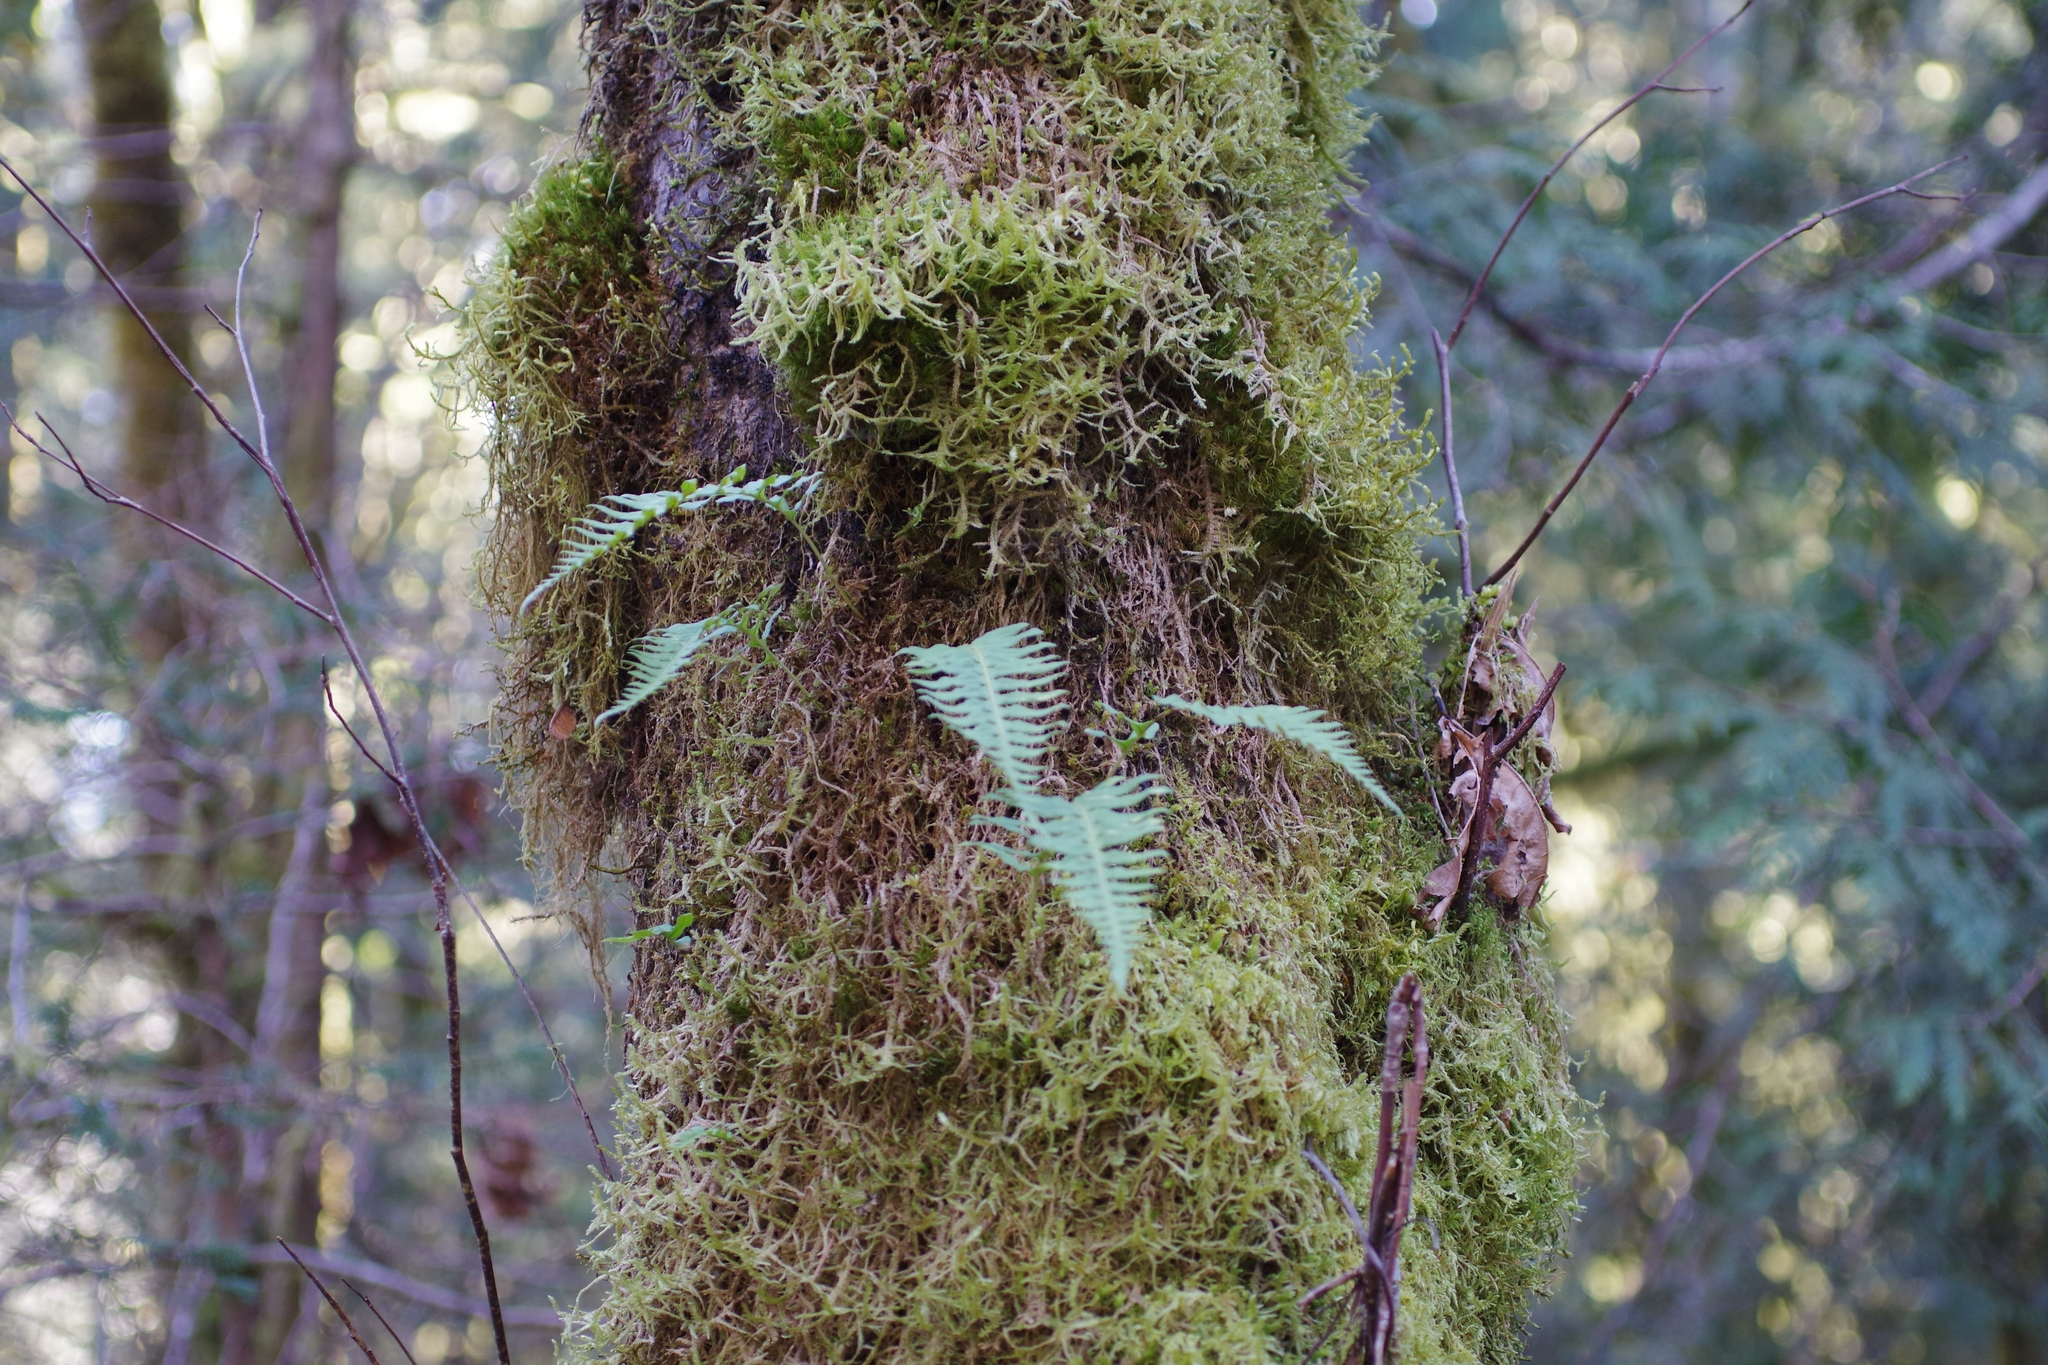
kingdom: Plantae
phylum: Tracheophyta
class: Polypodiopsida
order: Polypodiales
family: Polypodiaceae
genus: Polypodium
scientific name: Polypodium glycyrrhiza
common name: Licorice fern
